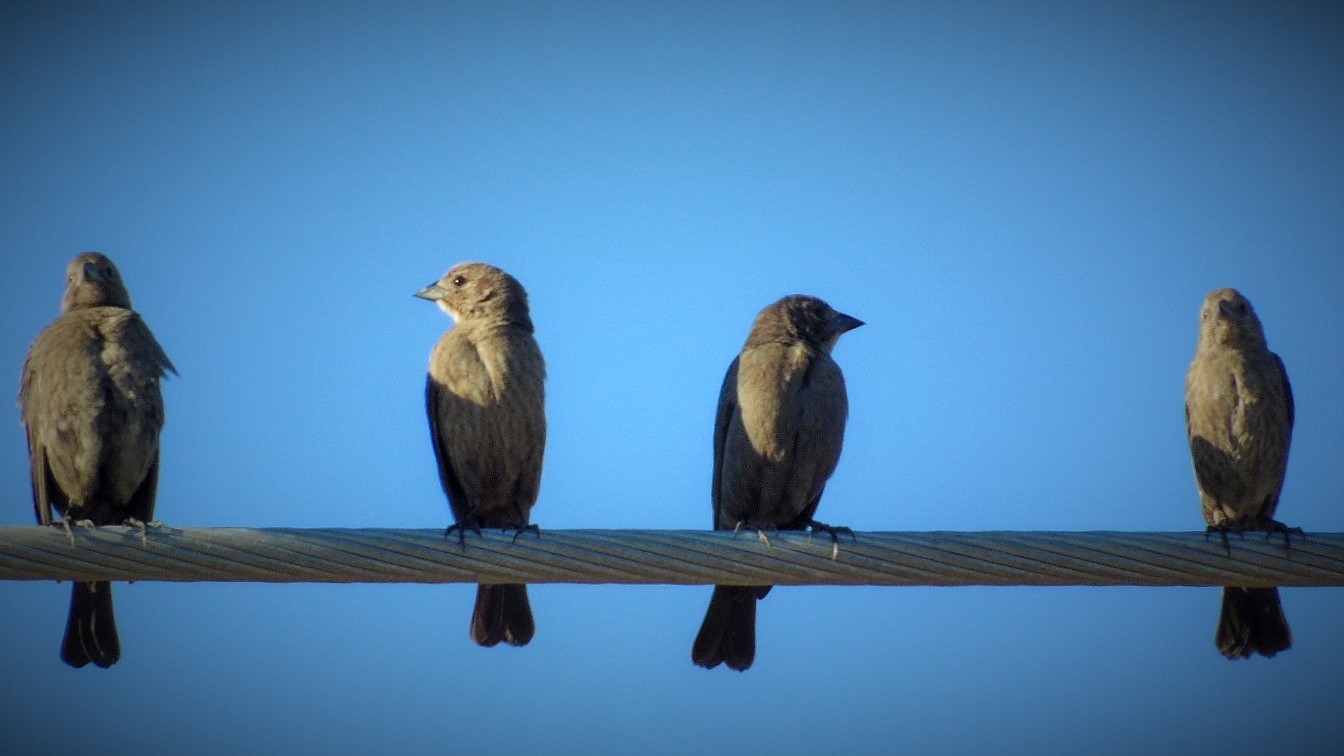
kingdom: Animalia
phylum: Chordata
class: Aves
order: Passeriformes
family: Icteridae
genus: Molothrus
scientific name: Molothrus ater
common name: Brown-headed cowbird
